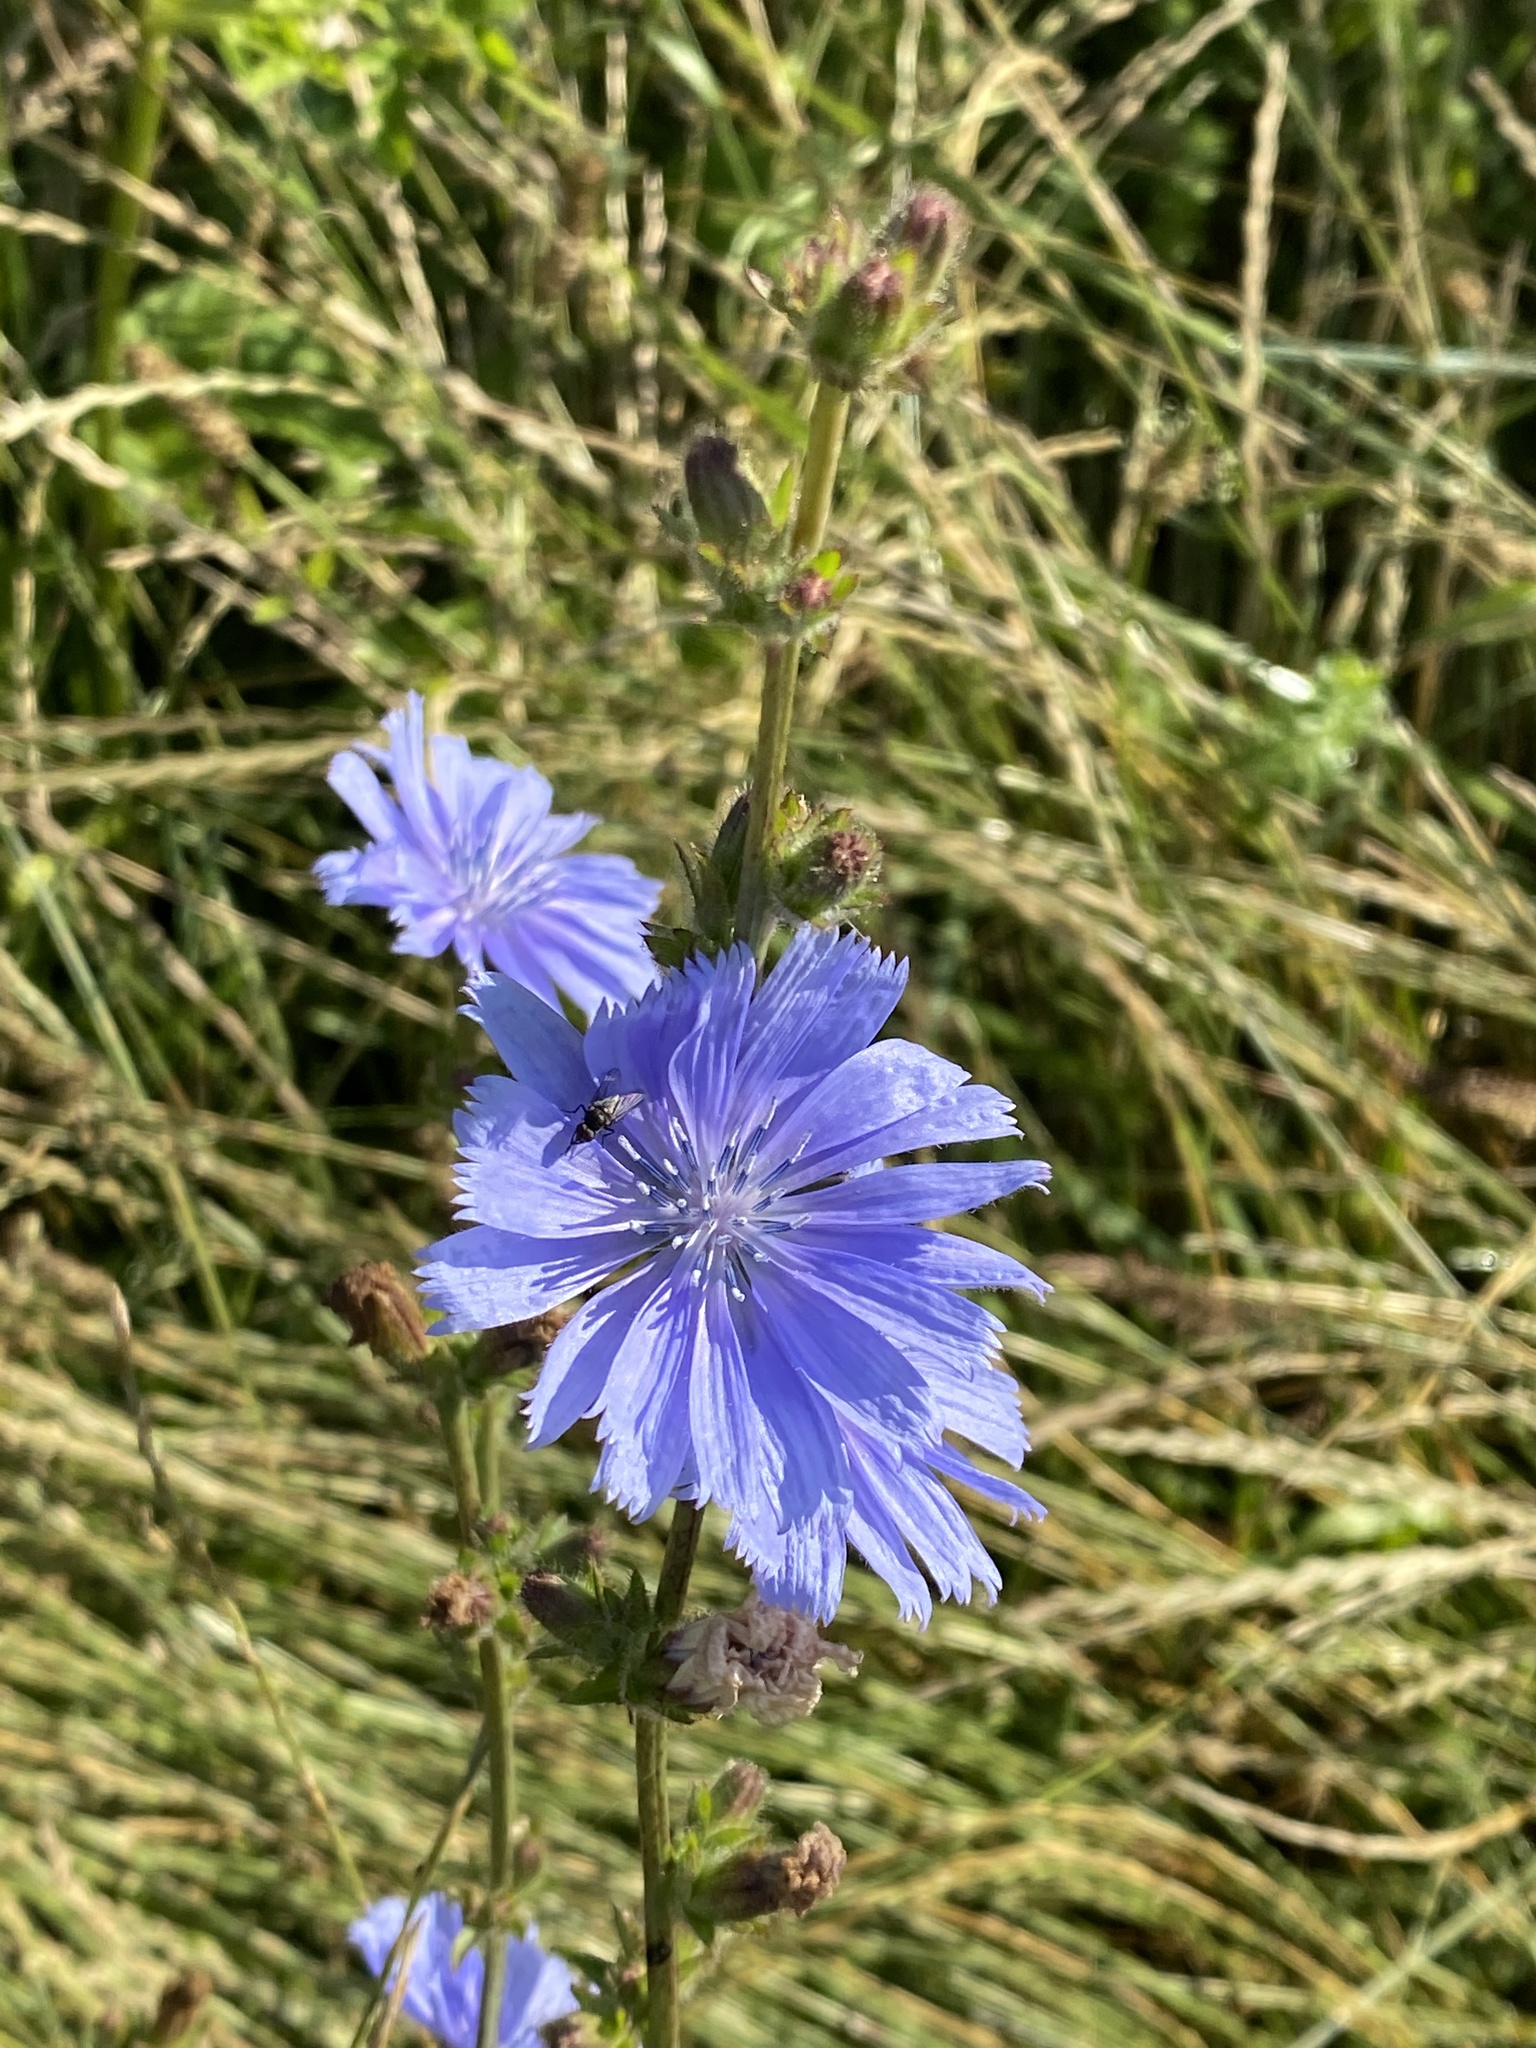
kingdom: Plantae
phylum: Tracheophyta
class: Magnoliopsida
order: Asterales
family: Asteraceae
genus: Cichorium
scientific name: Cichorium intybus
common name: Chicory
